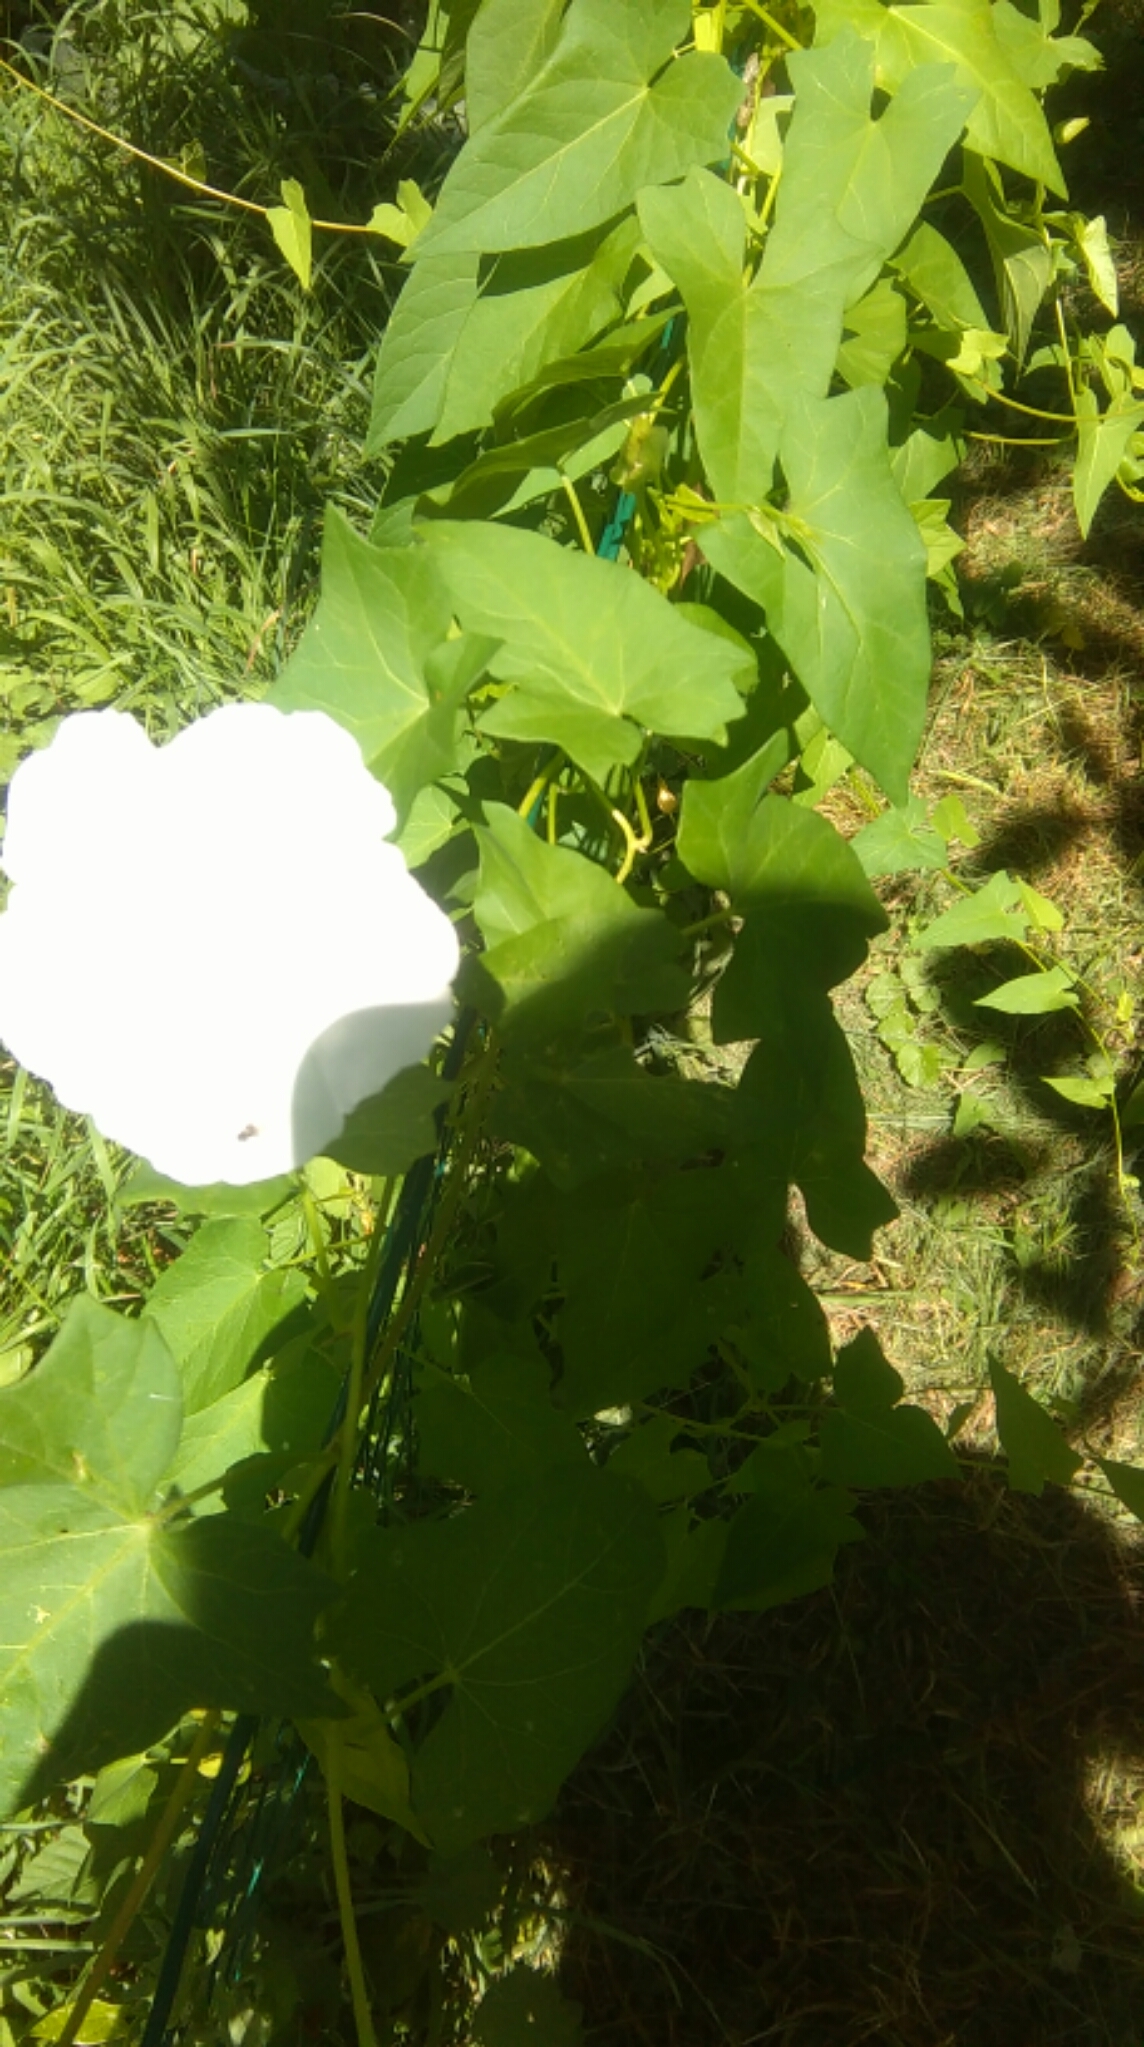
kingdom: Plantae
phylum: Tracheophyta
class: Magnoliopsida
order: Solanales
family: Convolvulaceae
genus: Calystegia
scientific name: Calystegia sepium
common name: Hedge bindweed
